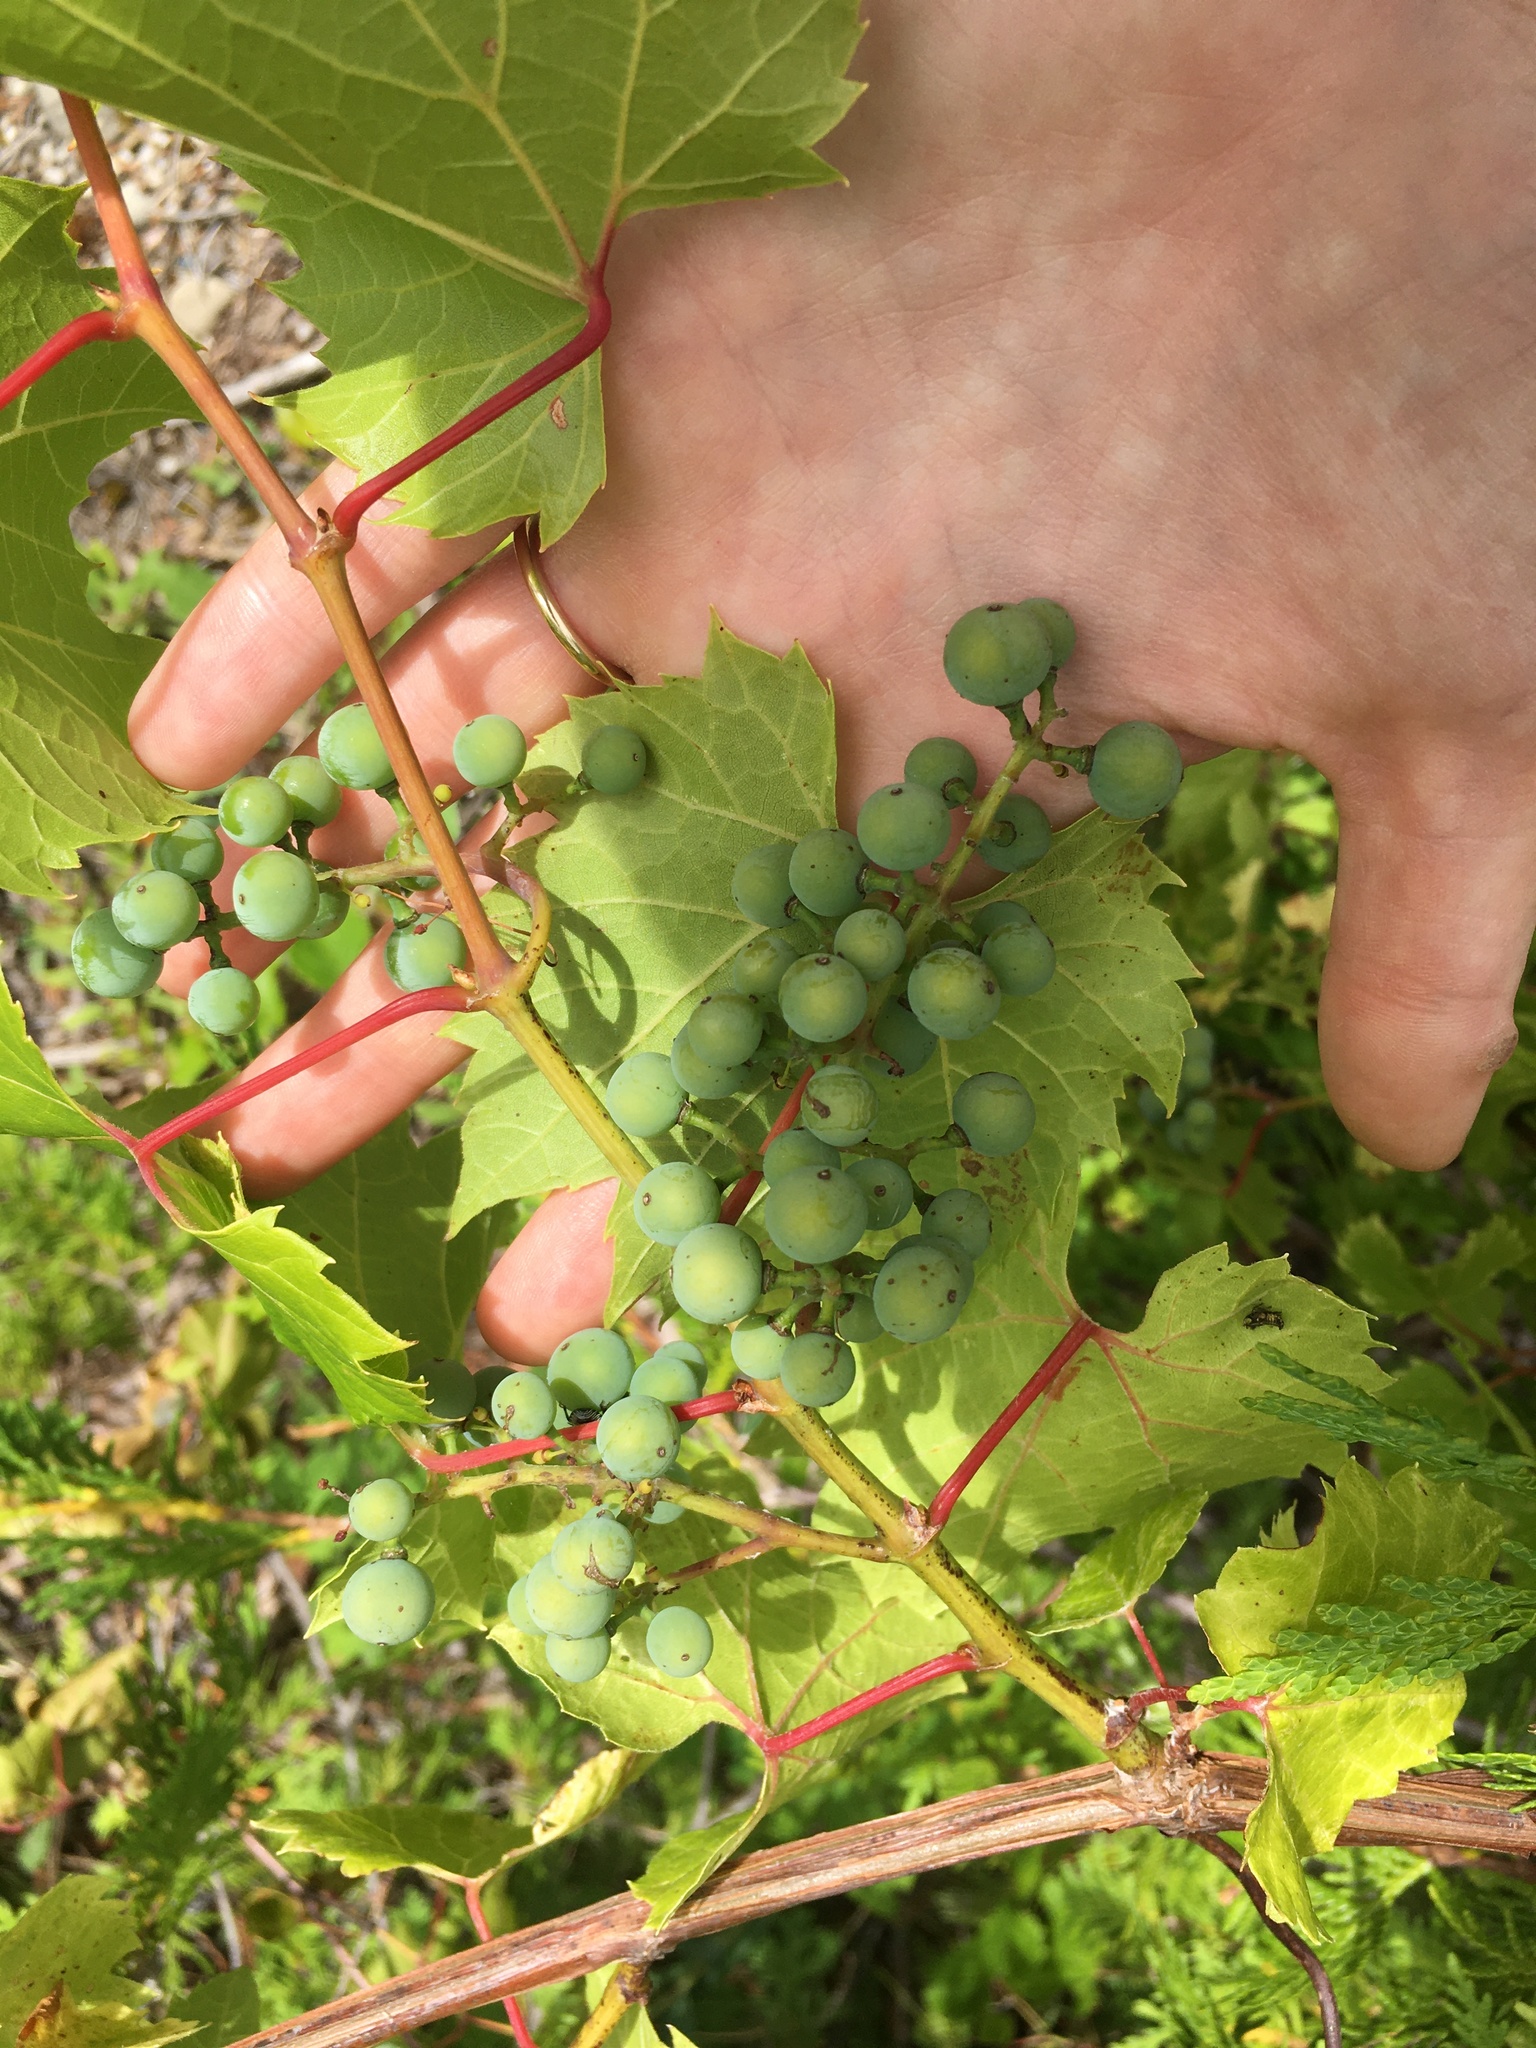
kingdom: Plantae
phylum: Tracheophyta
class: Magnoliopsida
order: Vitales
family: Vitaceae
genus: Vitis
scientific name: Vitis riparia
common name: Frost grape
